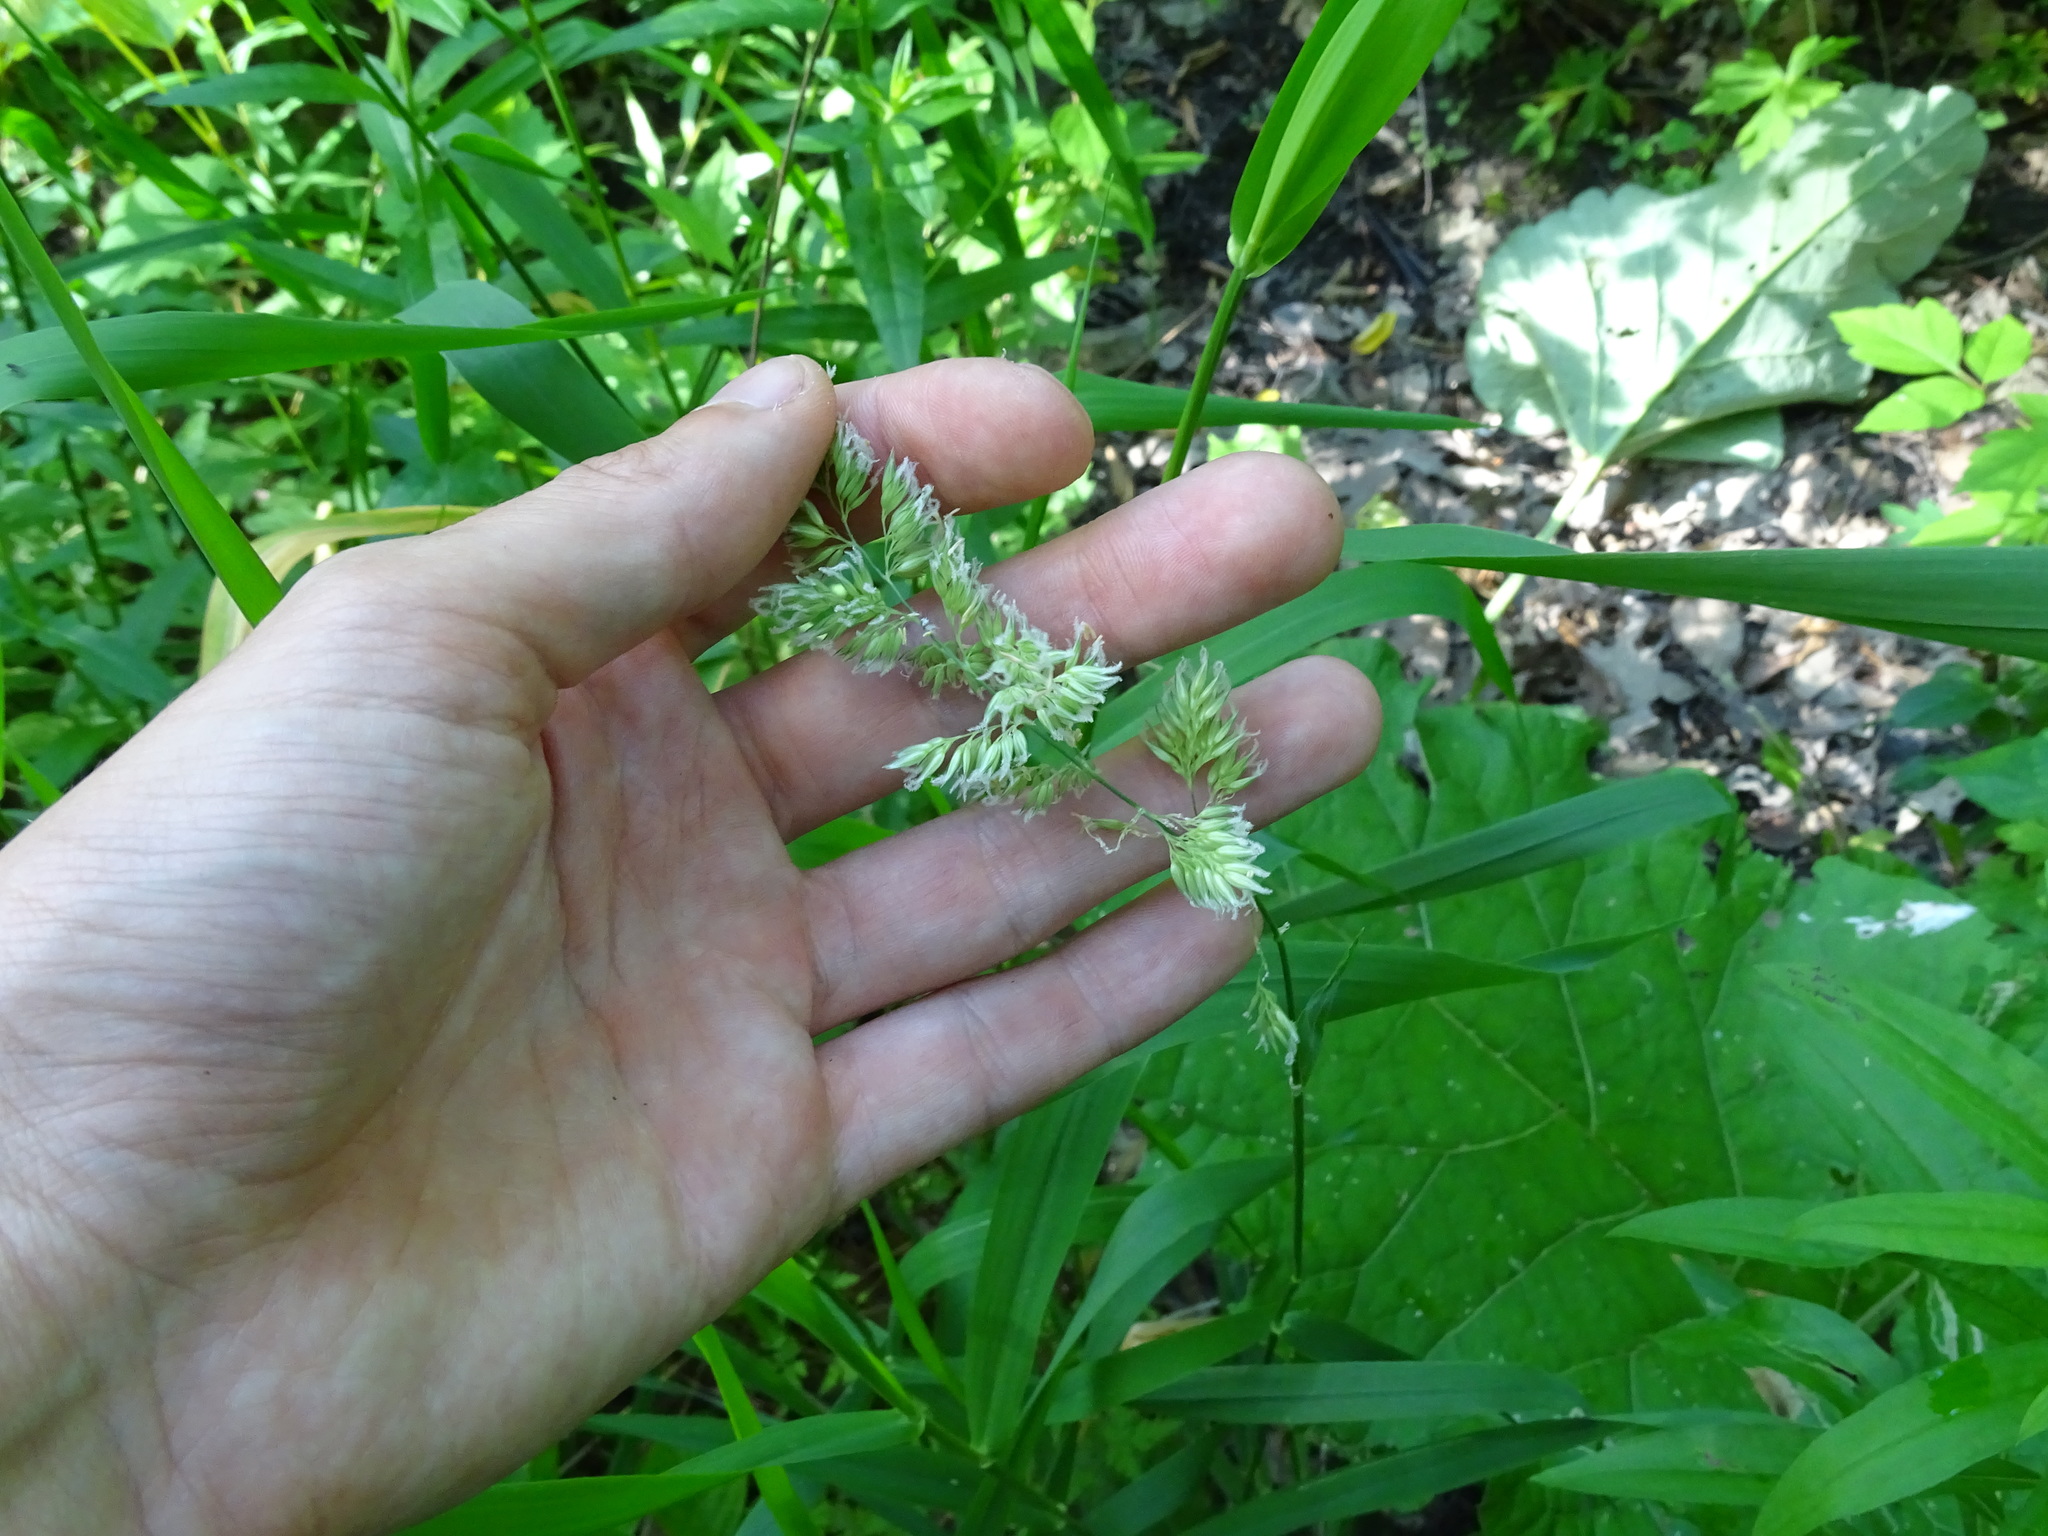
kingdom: Plantae
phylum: Tracheophyta
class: Liliopsida
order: Poales
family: Poaceae
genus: Dactylis
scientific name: Dactylis glomerata
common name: Orchardgrass
